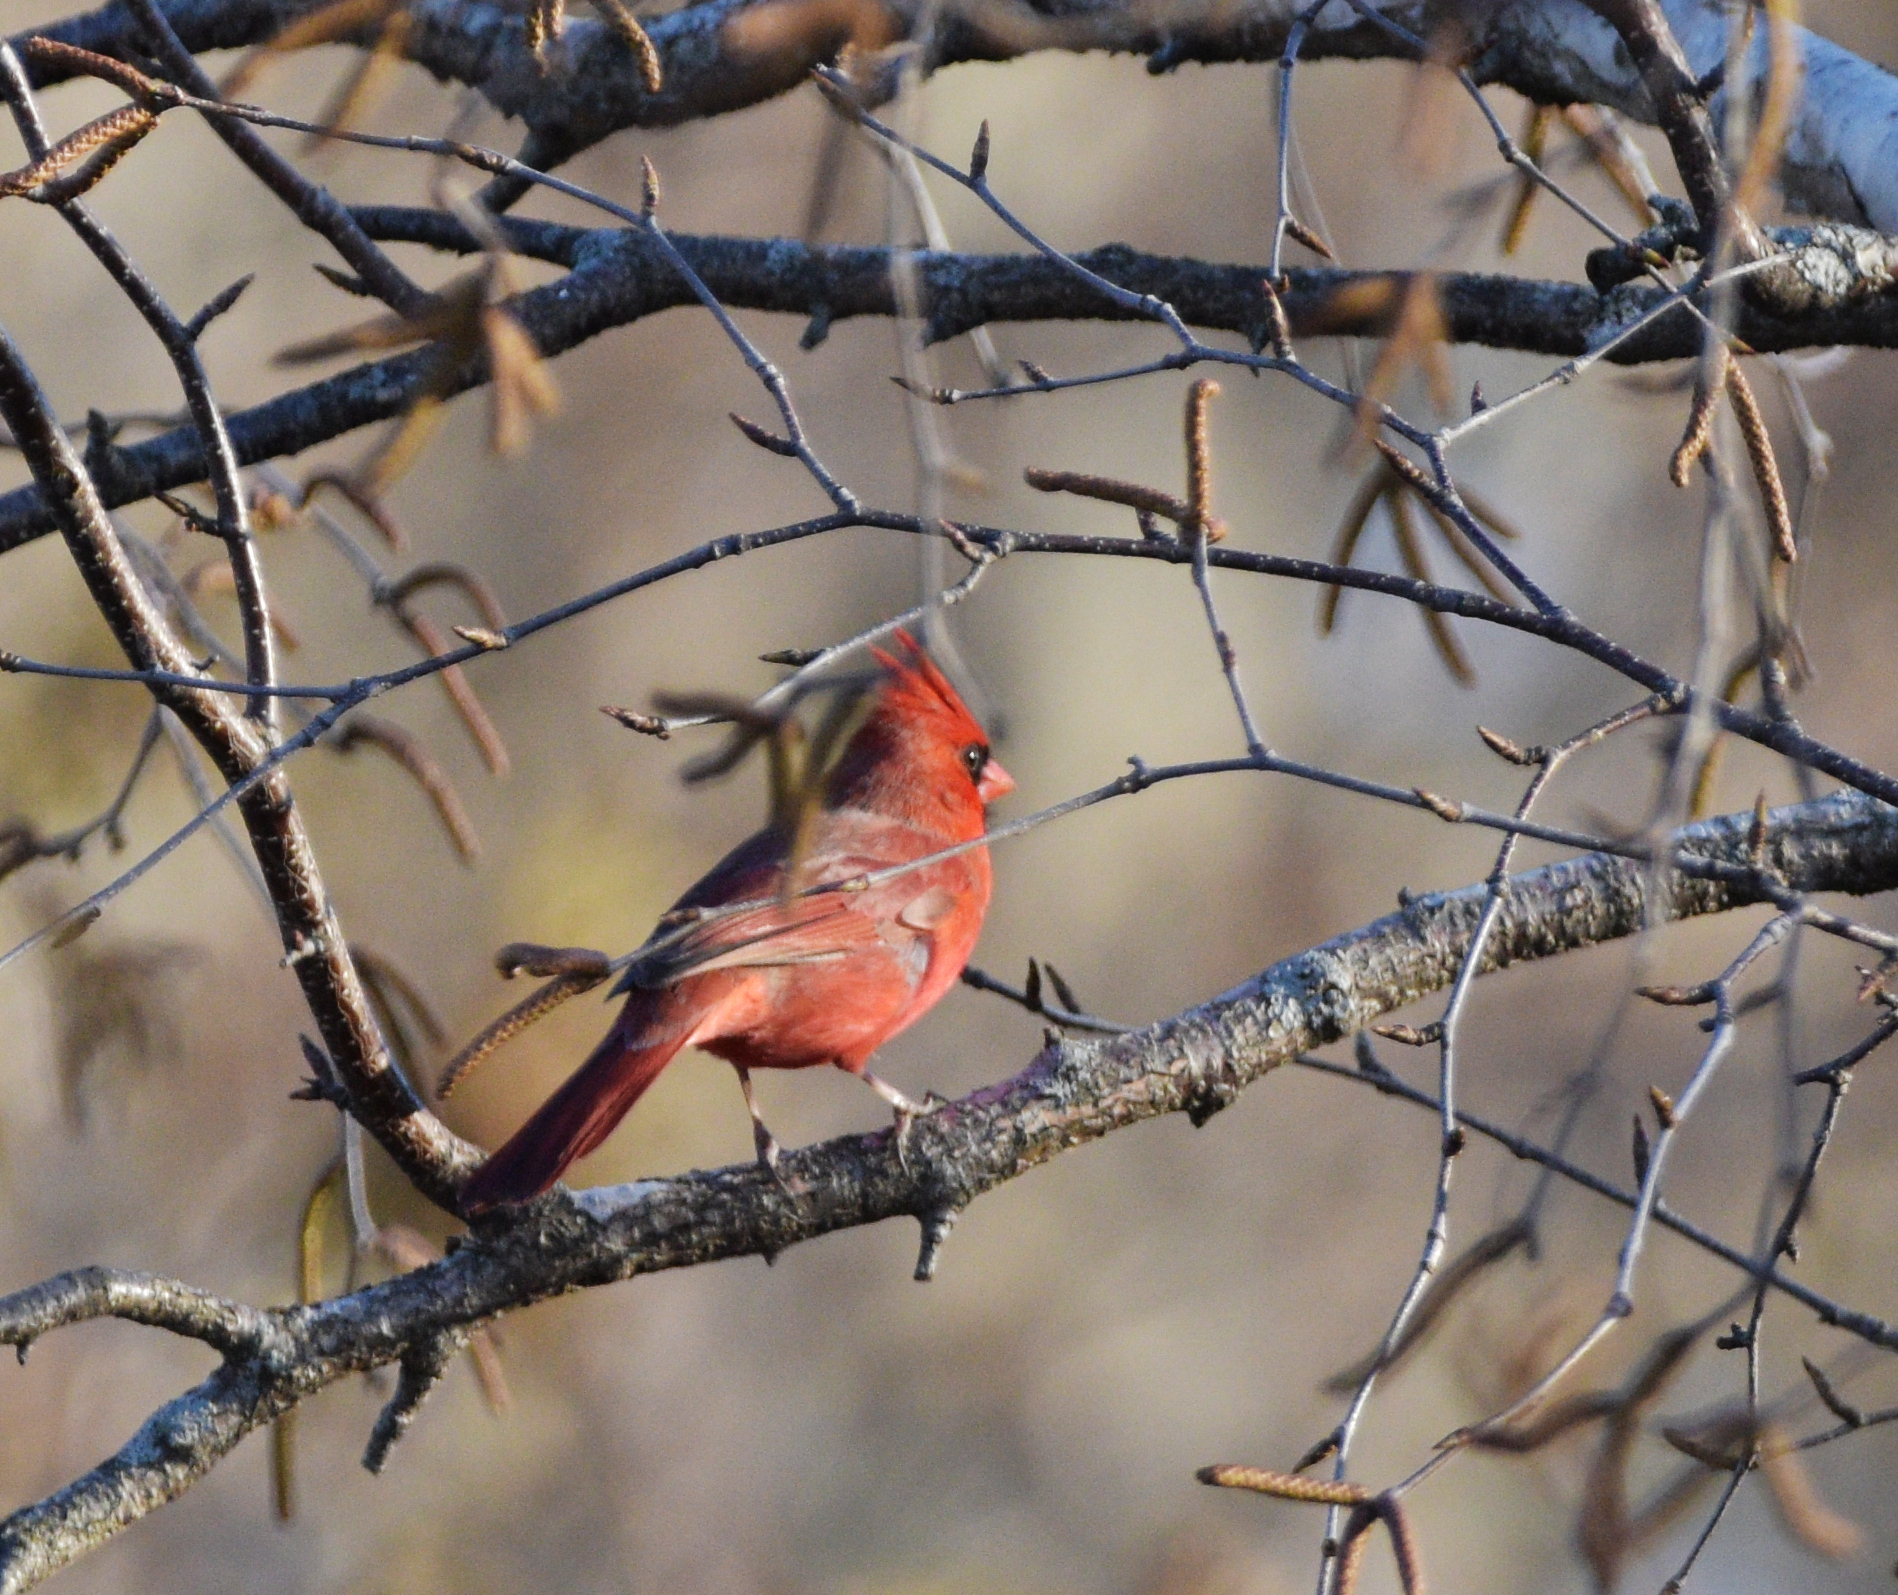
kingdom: Animalia
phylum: Chordata
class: Aves
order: Passeriformes
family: Cardinalidae
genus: Cardinalis
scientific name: Cardinalis cardinalis
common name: Northern cardinal
